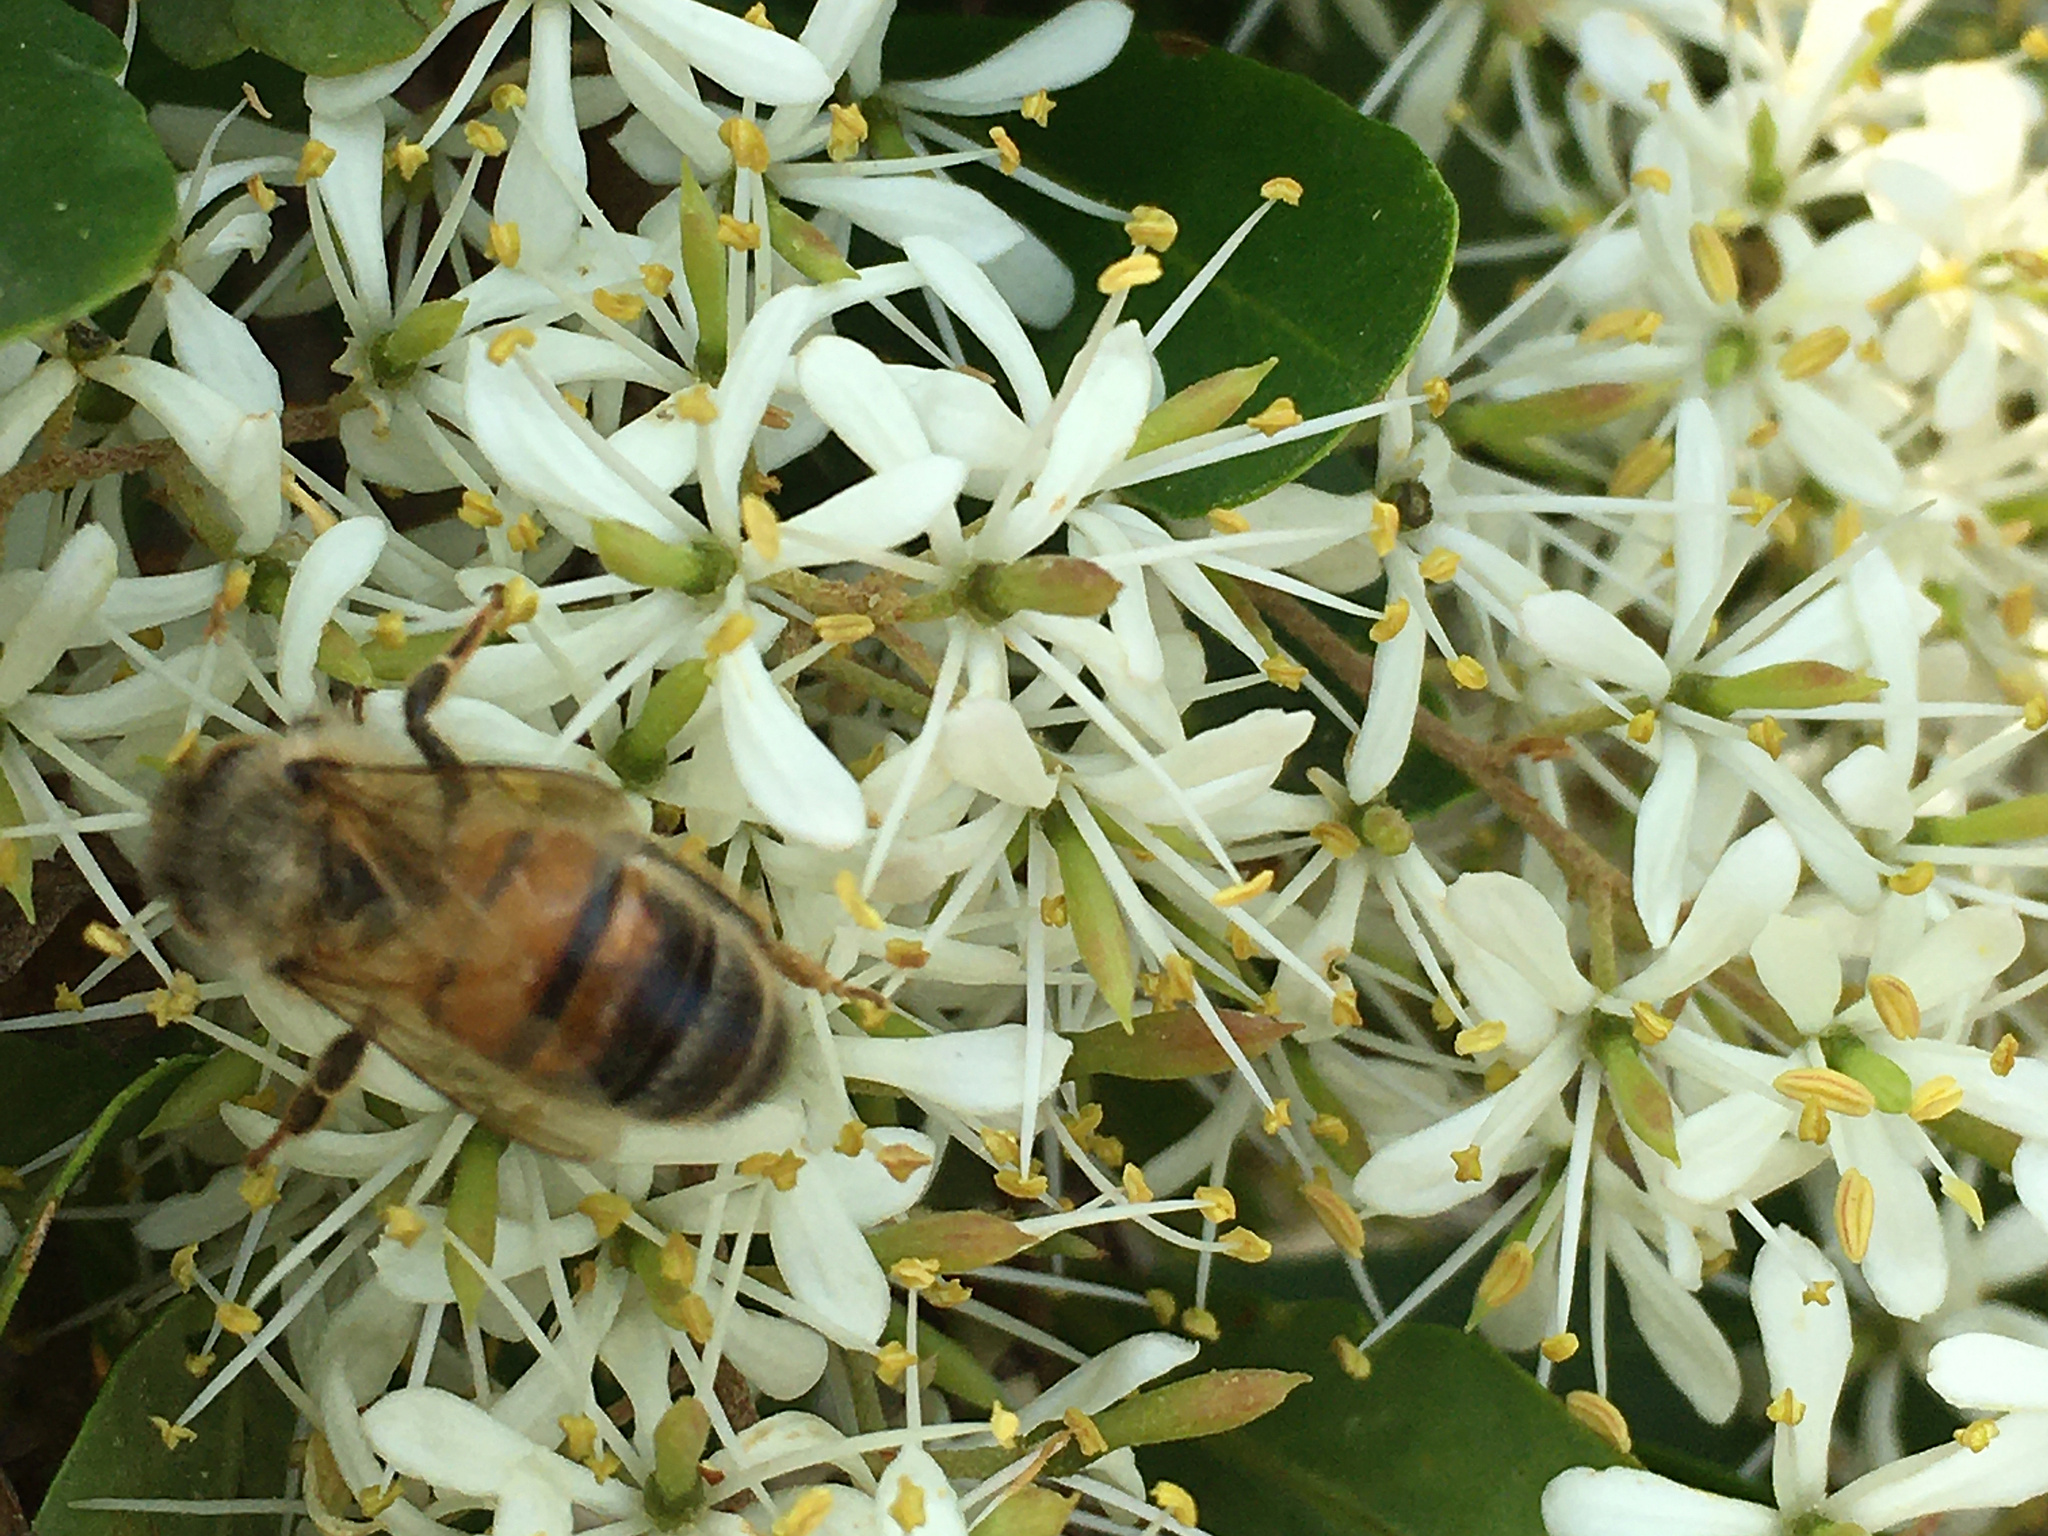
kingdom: Animalia
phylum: Arthropoda
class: Insecta
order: Hymenoptera
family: Apidae
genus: Apis
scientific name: Apis mellifera
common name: Honey bee
